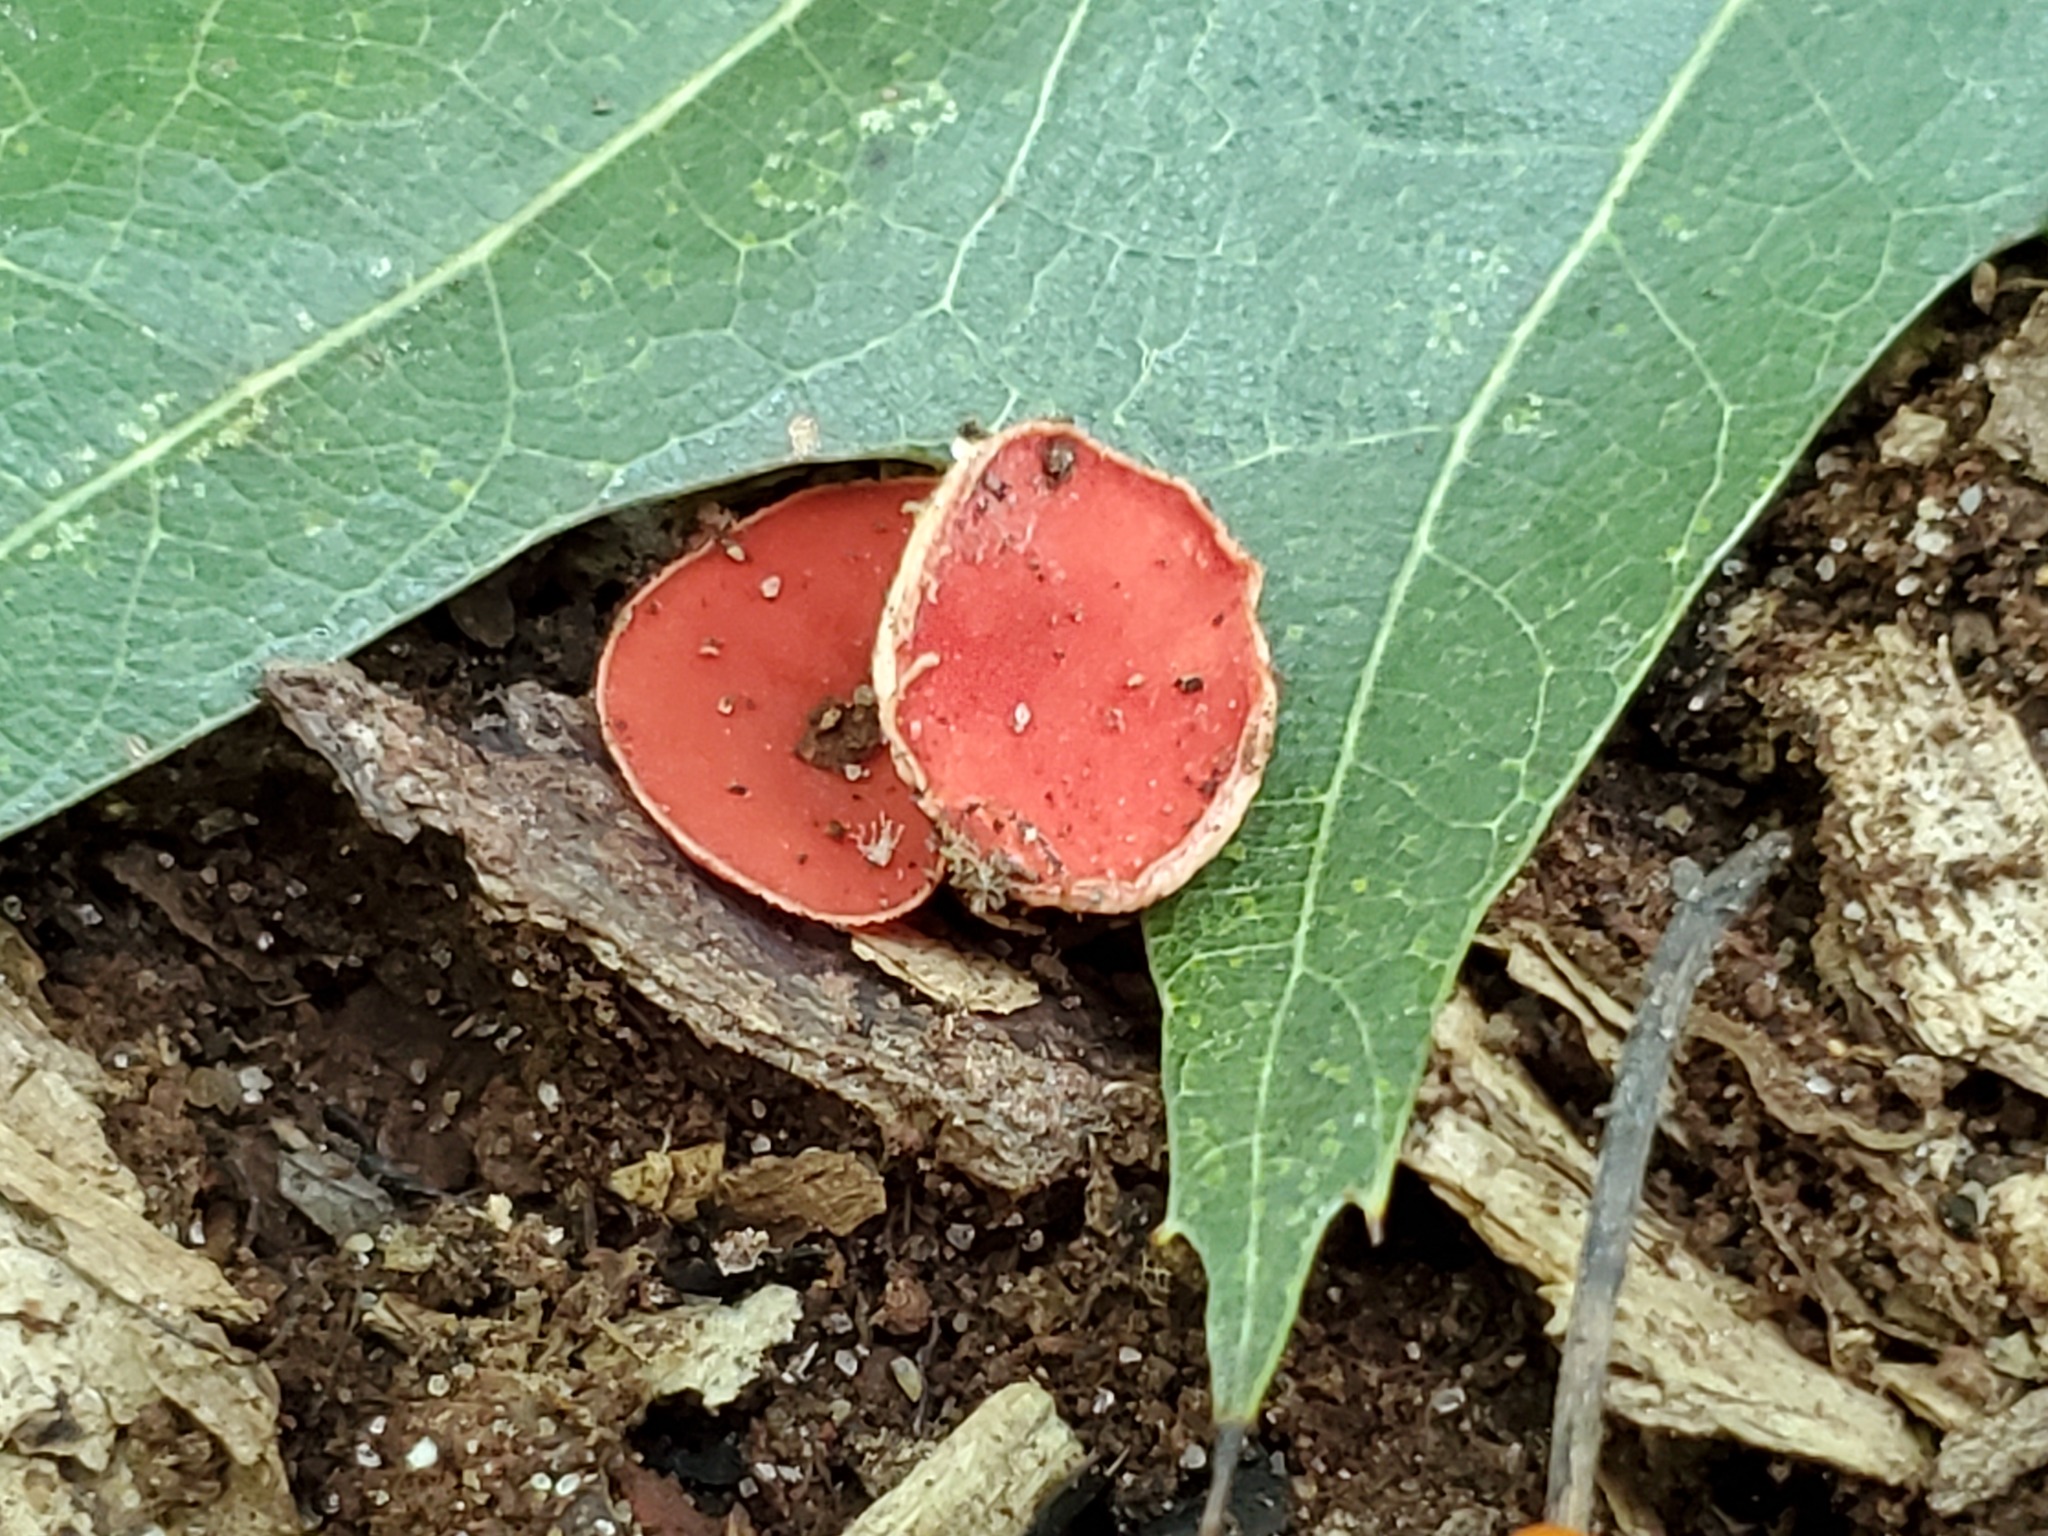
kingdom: Fungi
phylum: Ascomycota
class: Pezizomycetes
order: Pezizales
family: Sarcoscyphaceae
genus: Sarcoscypha
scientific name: Sarcoscypha occidentalis
